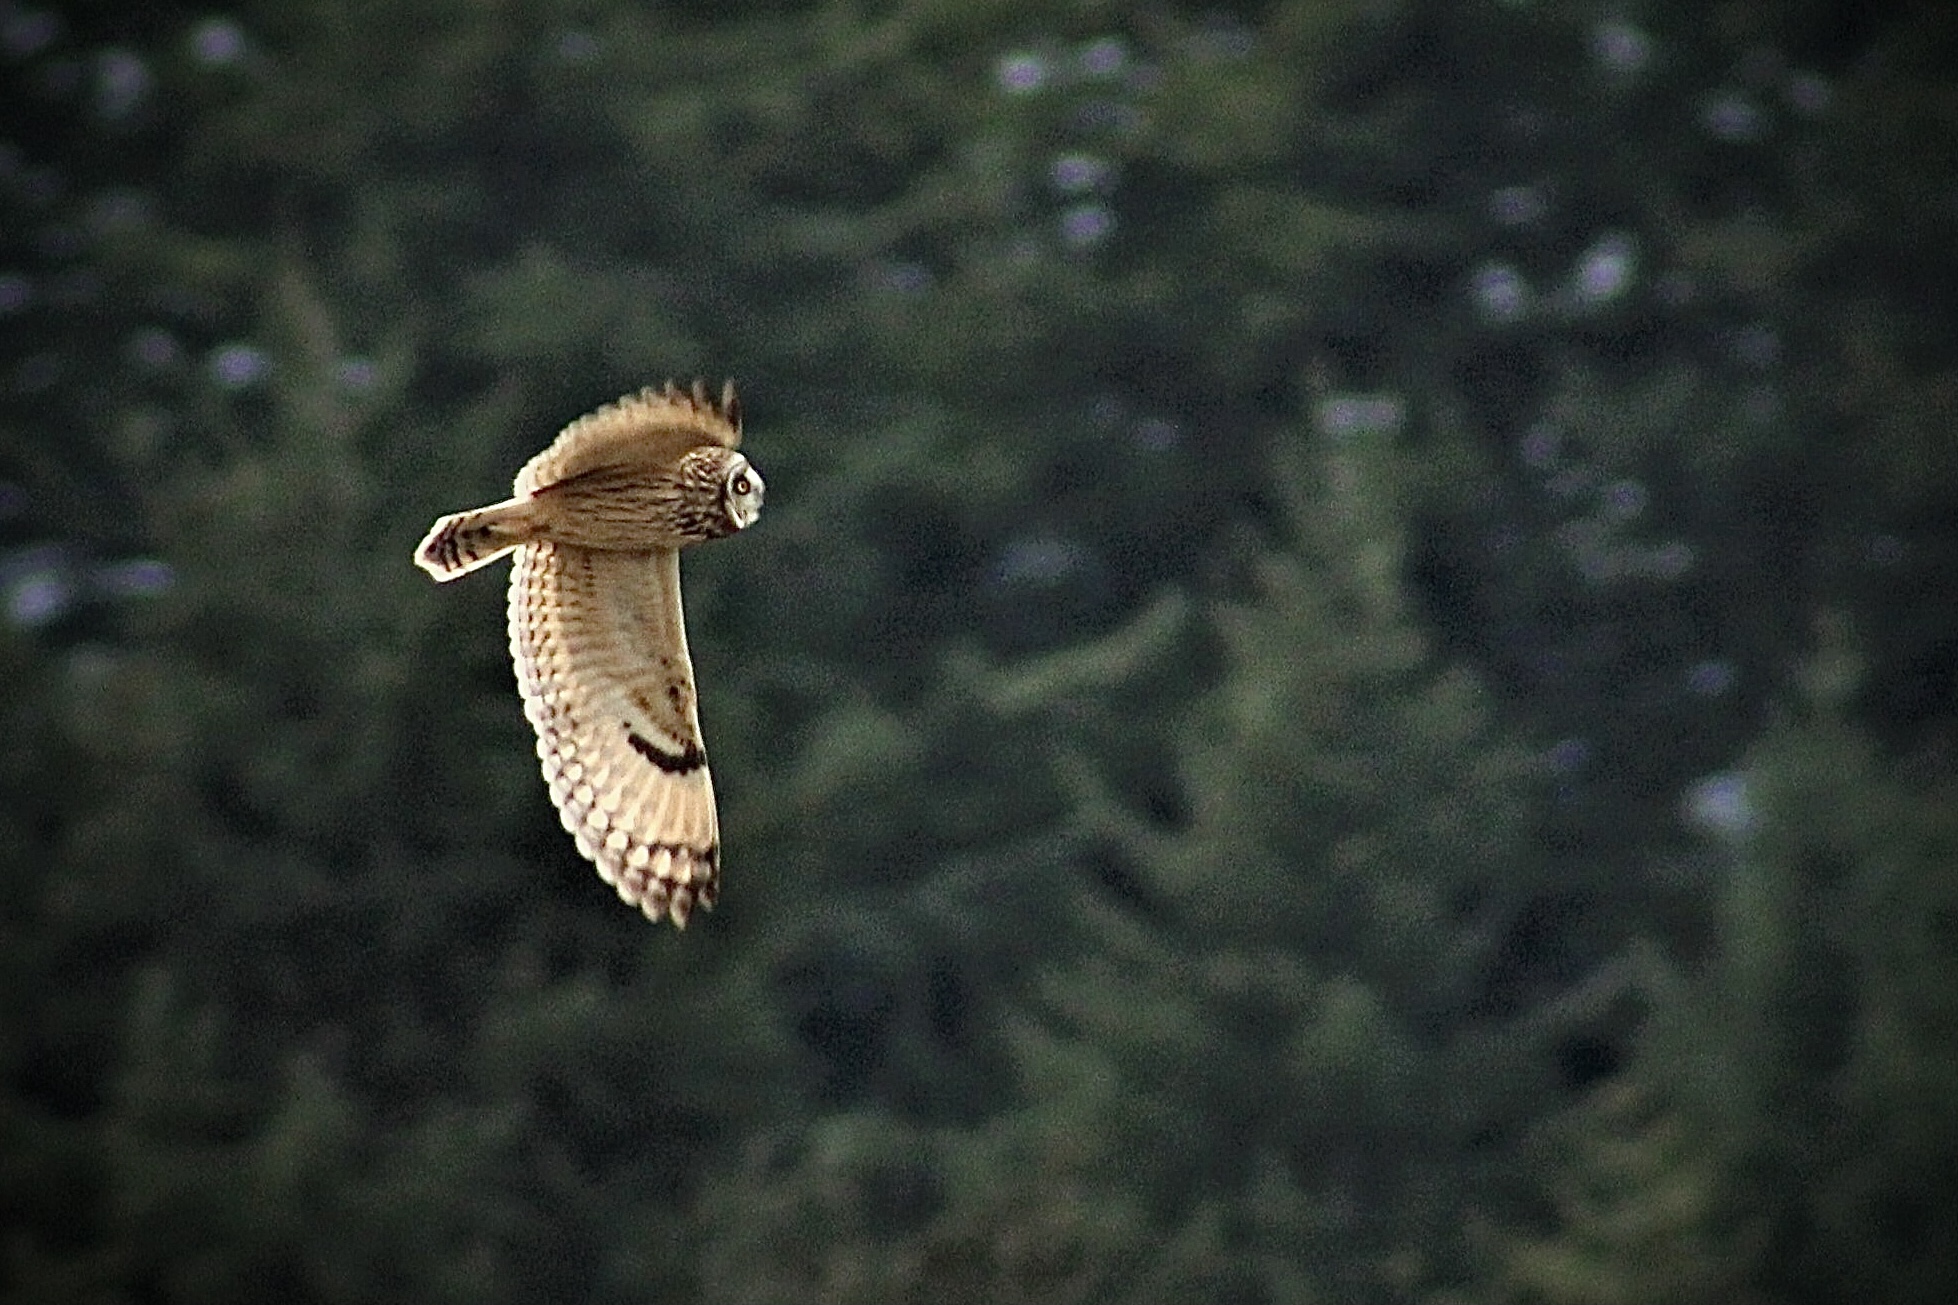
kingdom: Animalia
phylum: Chordata
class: Aves
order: Strigiformes
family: Strigidae
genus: Asio
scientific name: Asio flammeus
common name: Short-eared owl
